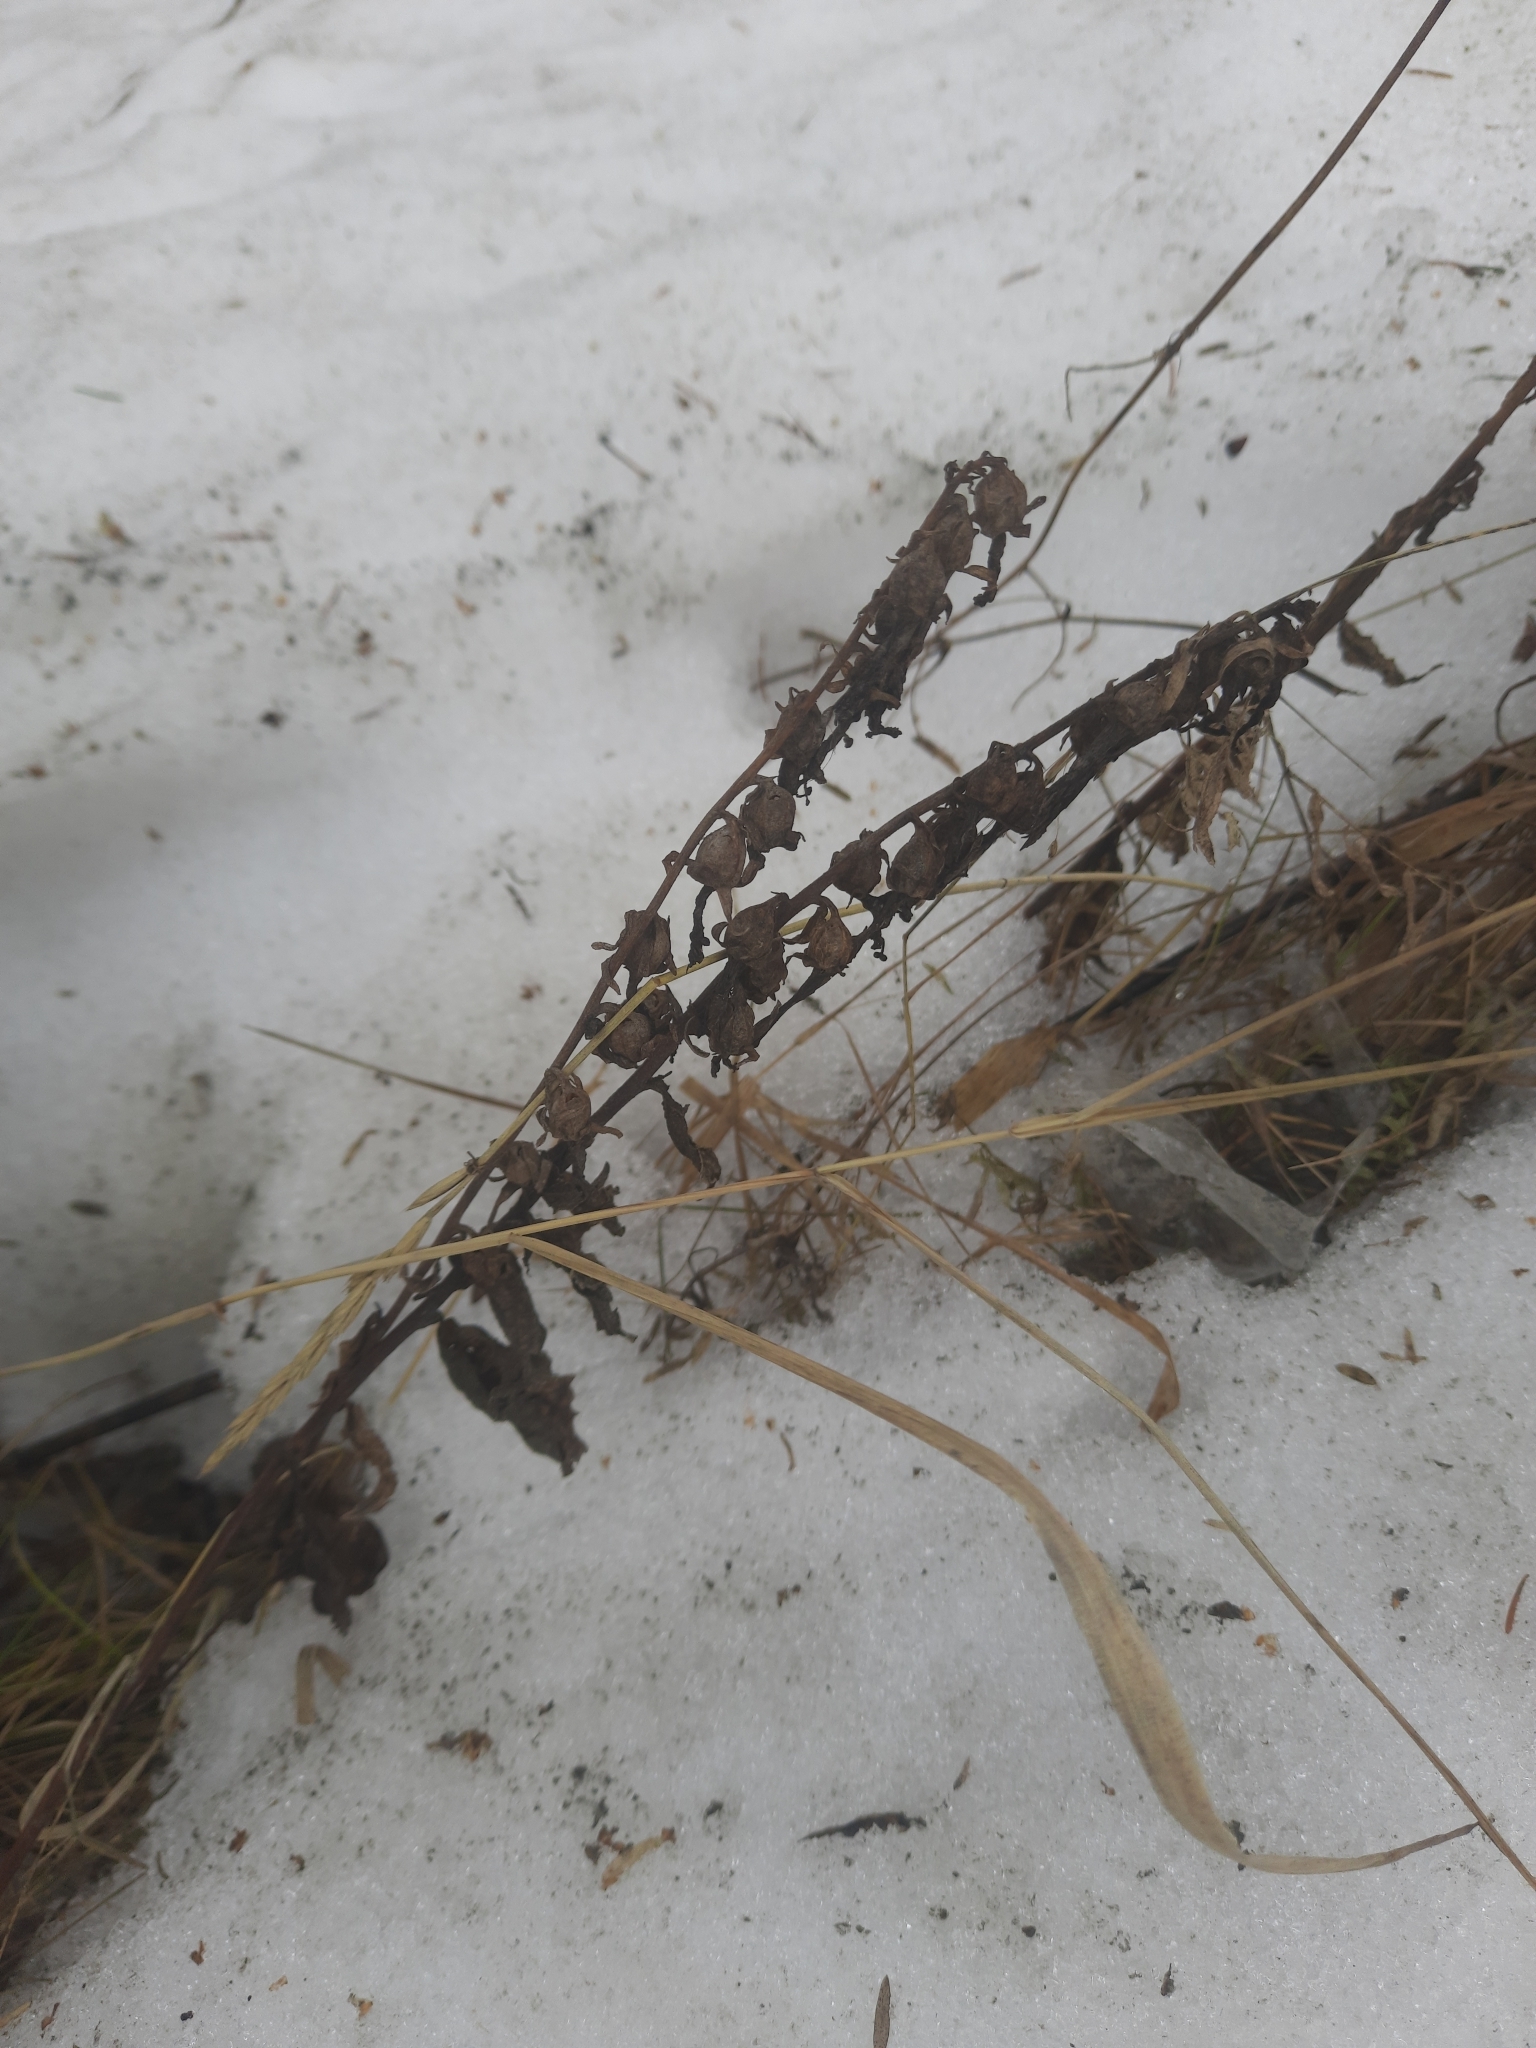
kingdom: Plantae
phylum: Tracheophyta
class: Magnoliopsida
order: Asterales
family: Campanulaceae
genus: Campanula
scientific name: Campanula rapunculoides
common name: Creeping bellflower
